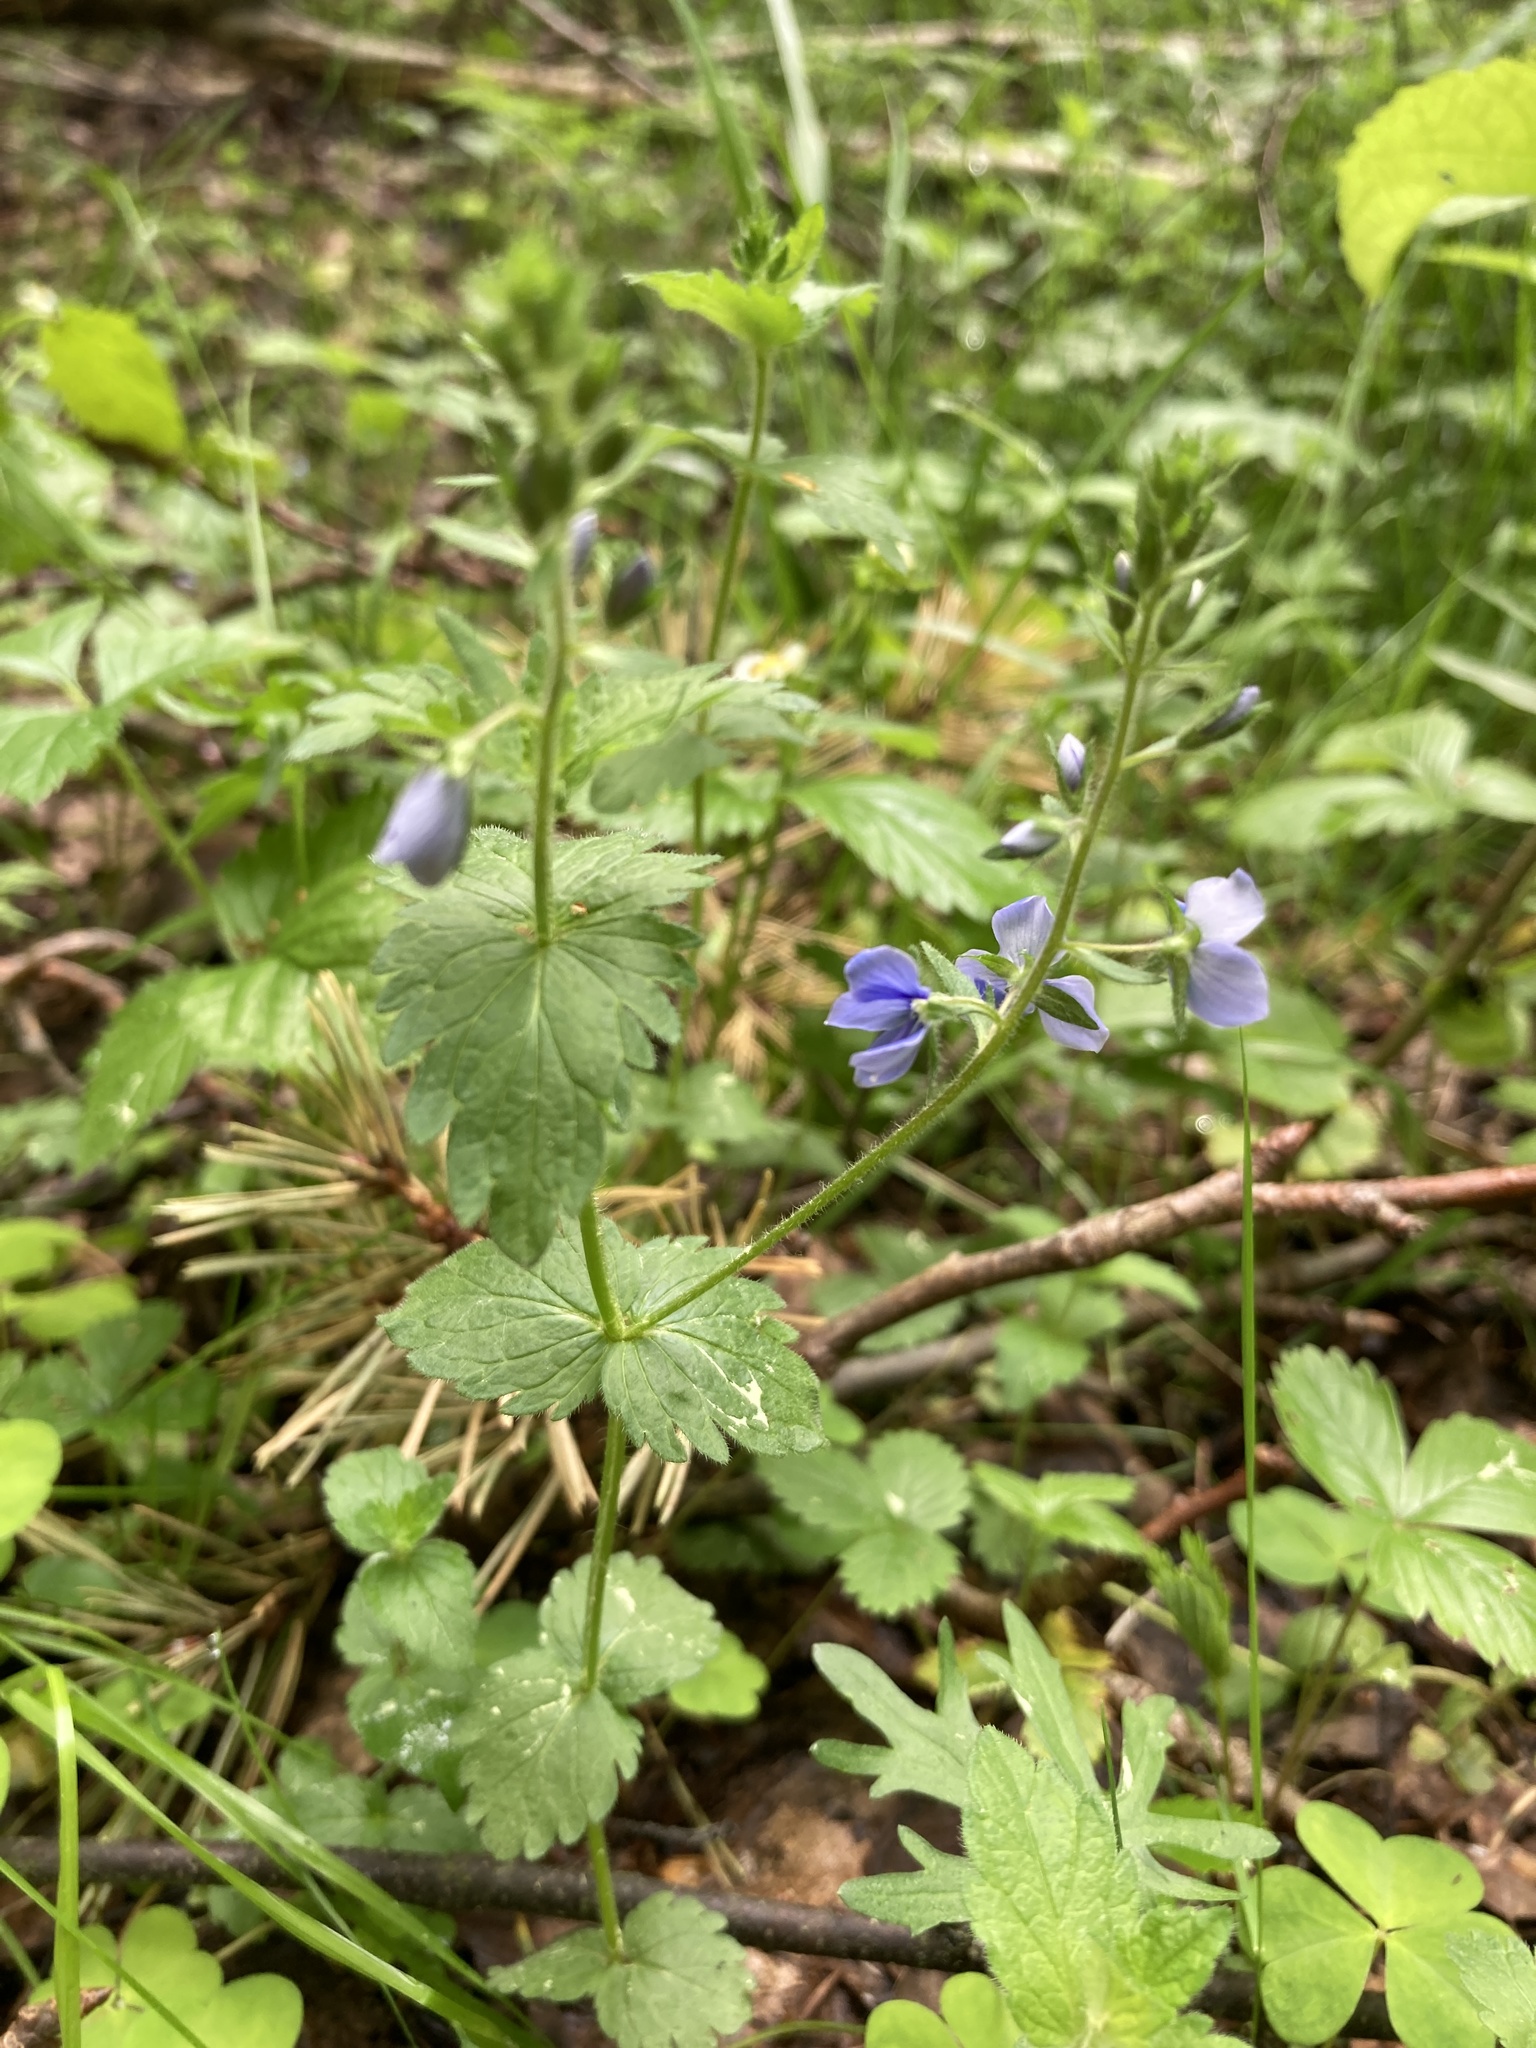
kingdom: Plantae
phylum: Tracheophyta
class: Magnoliopsida
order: Lamiales
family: Plantaginaceae
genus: Veronica
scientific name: Veronica chamaedrys
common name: Germander speedwell
